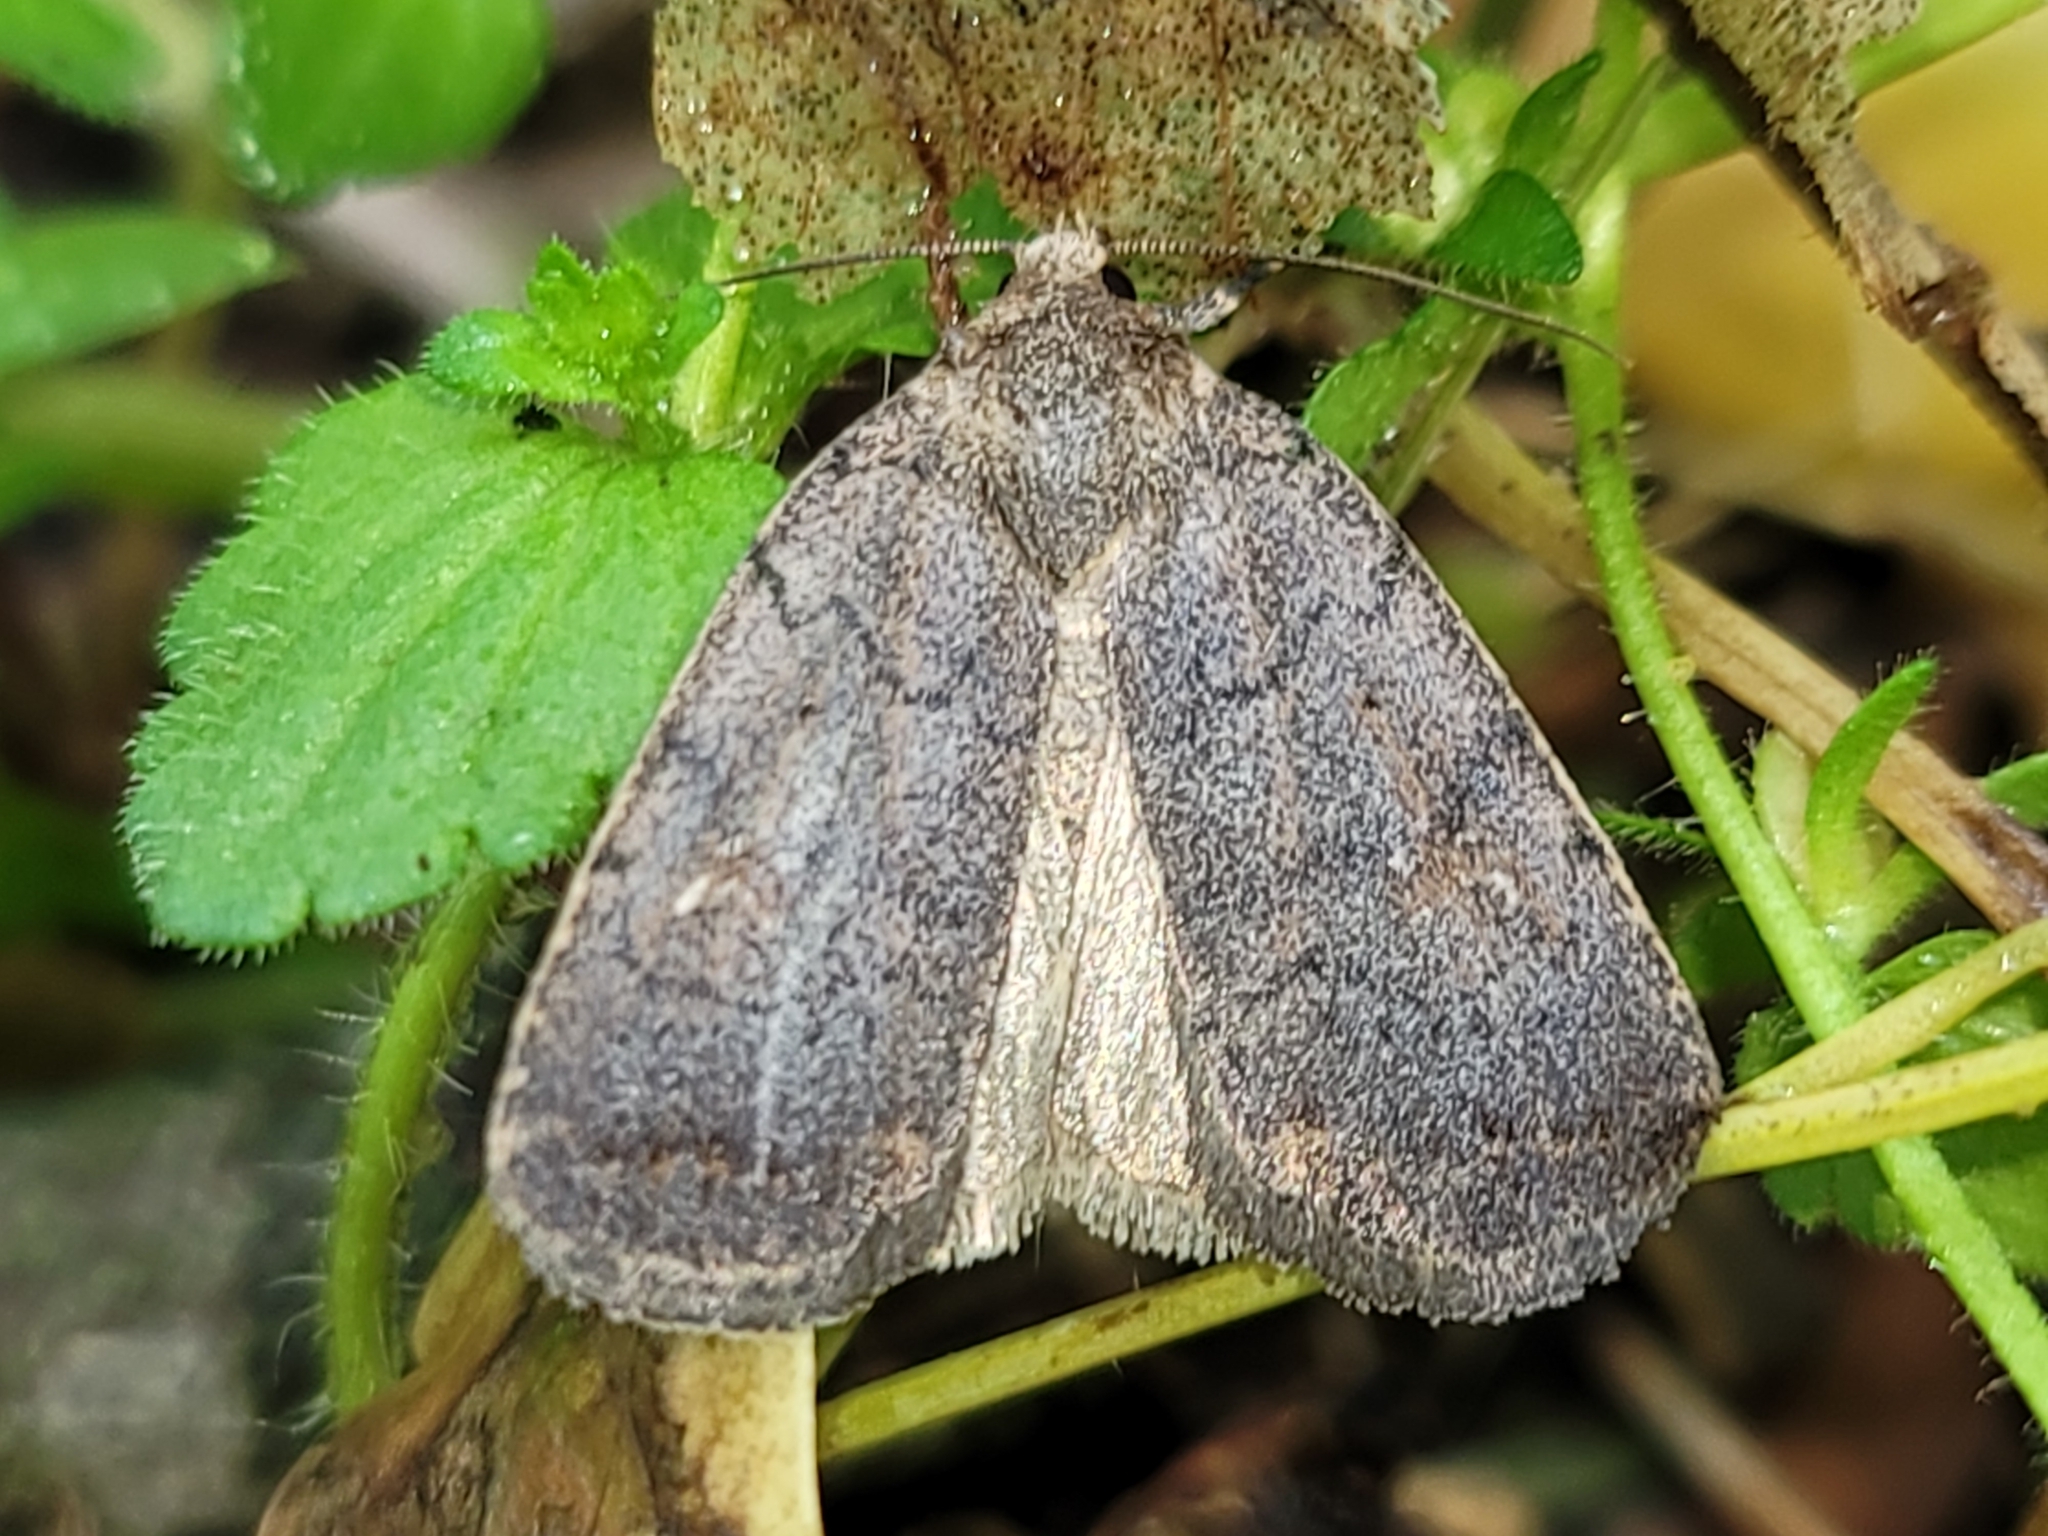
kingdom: Animalia
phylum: Arthropoda
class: Insecta
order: Lepidoptera
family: Noctuidae
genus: Athetis
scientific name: Athetis tarda
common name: Slowpoke moth
